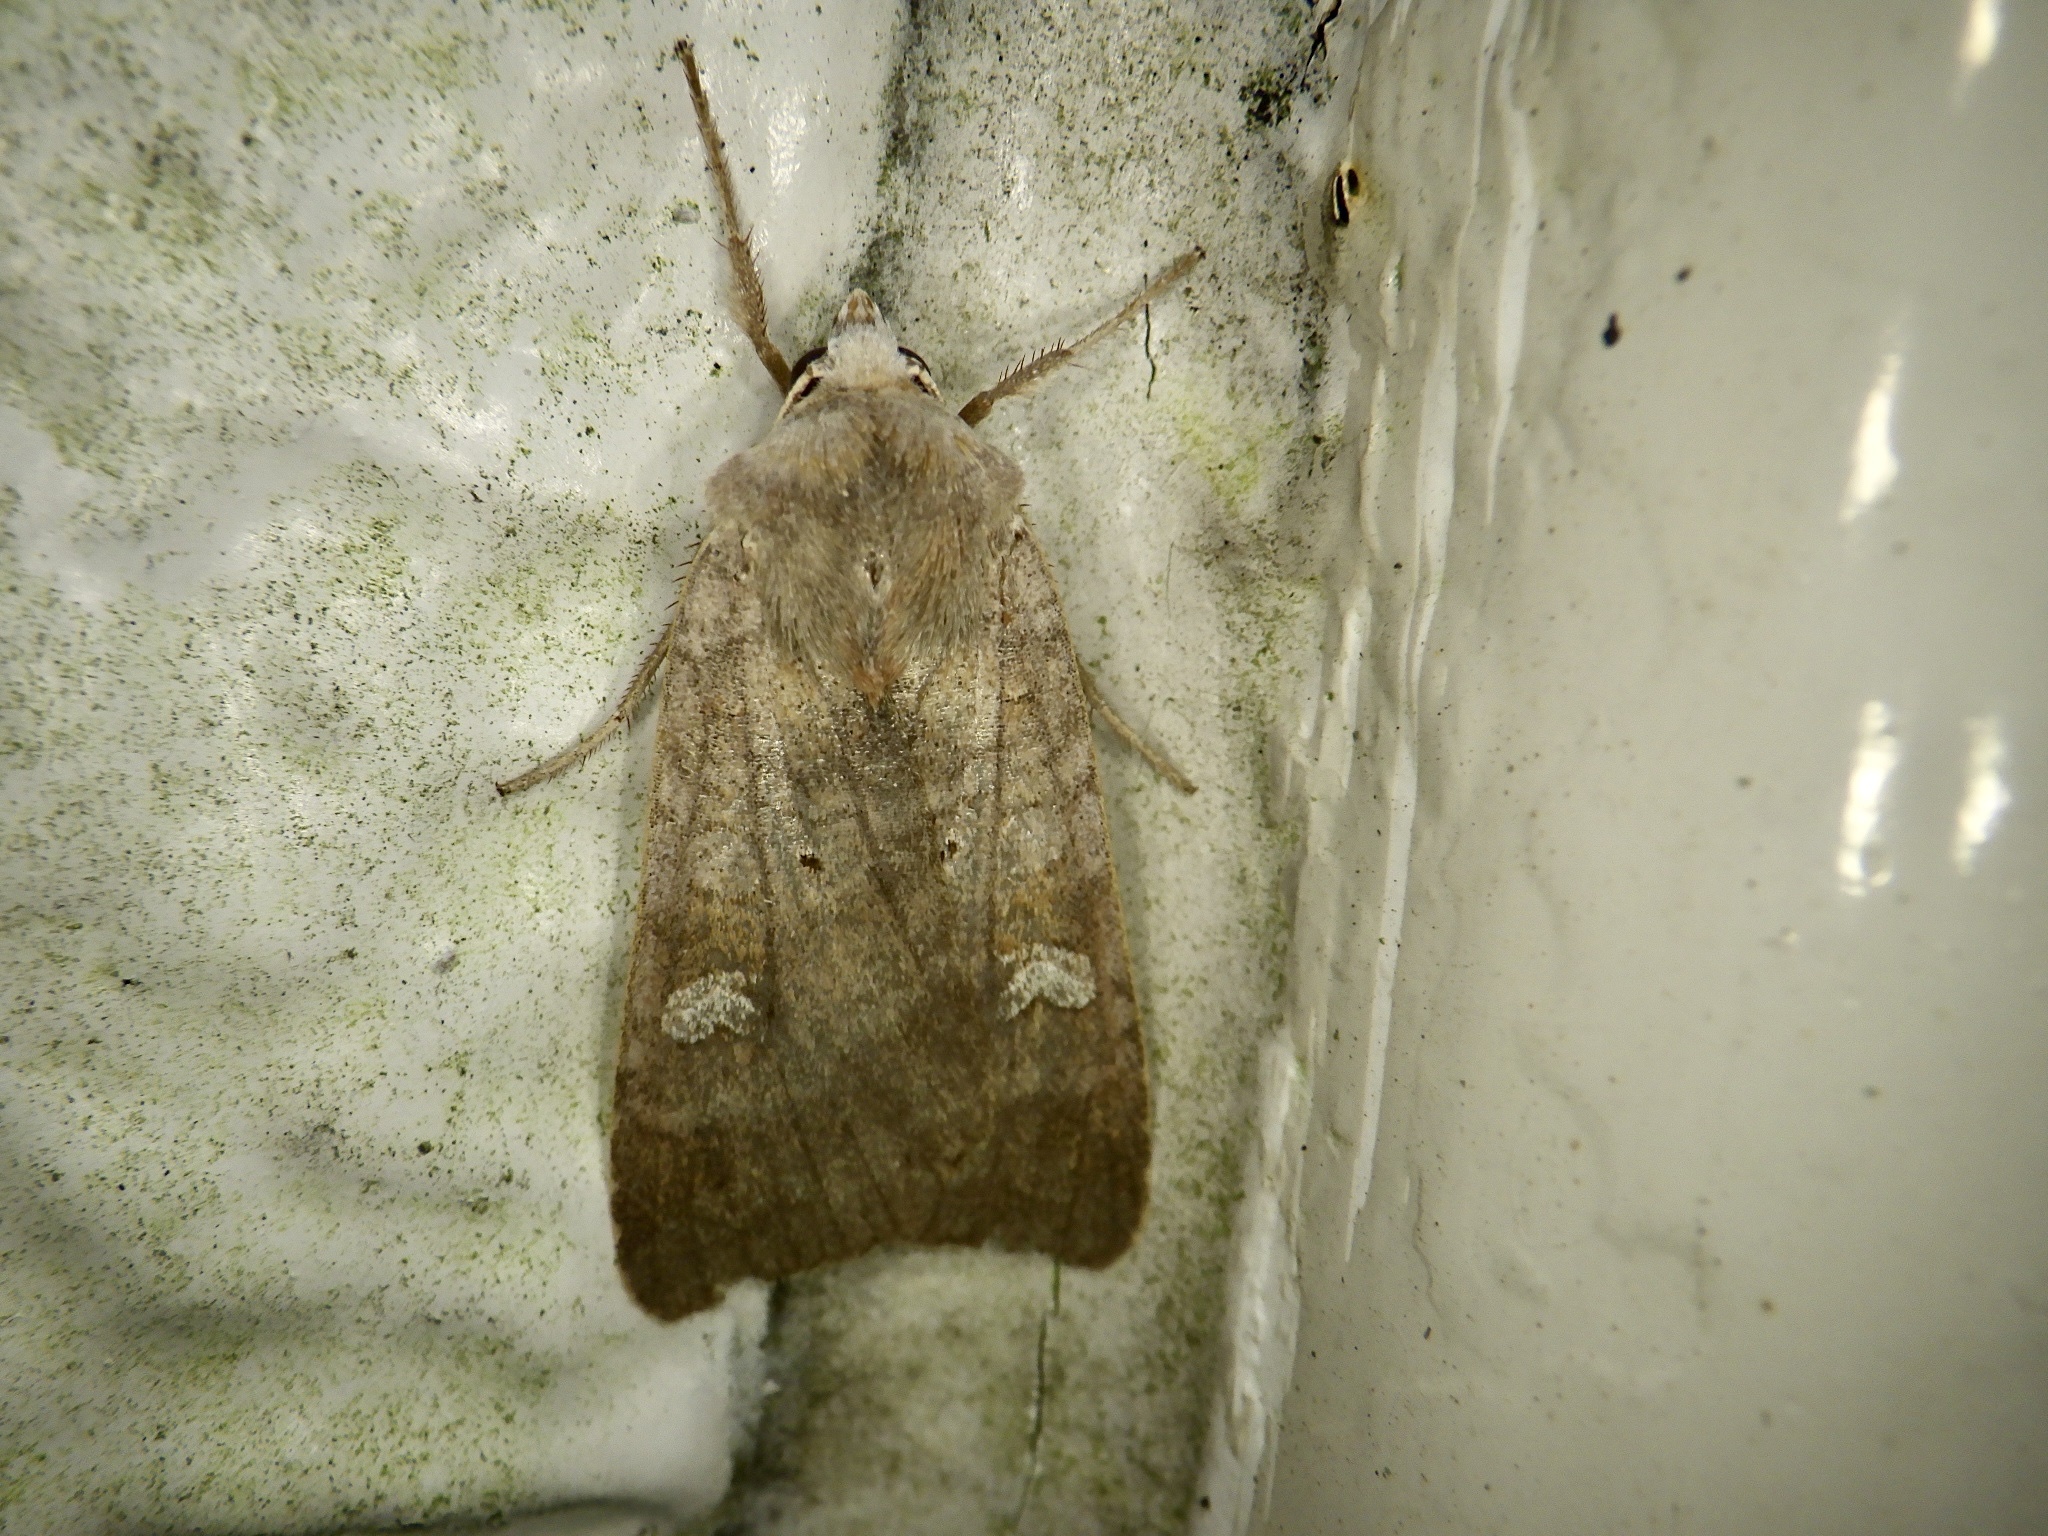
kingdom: Animalia
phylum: Arthropoda
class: Insecta
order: Lepidoptera
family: Noctuidae
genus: Diarsia
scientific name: Diarsia canescens
